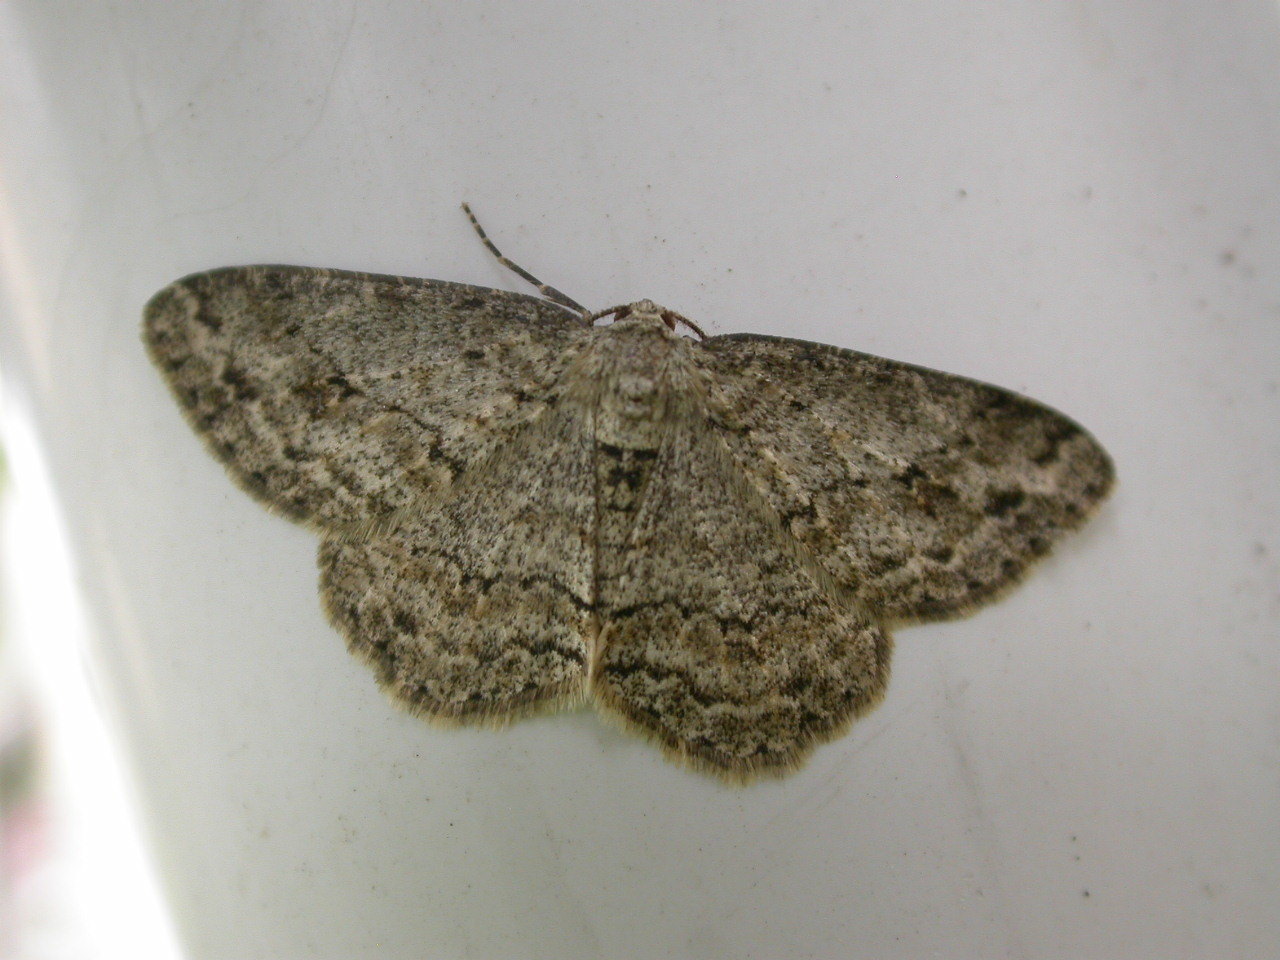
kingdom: Animalia
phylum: Arthropoda
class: Insecta
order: Lepidoptera
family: Geometridae
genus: Ectropis
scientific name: Ectropis crepuscularia
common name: Engrailed
